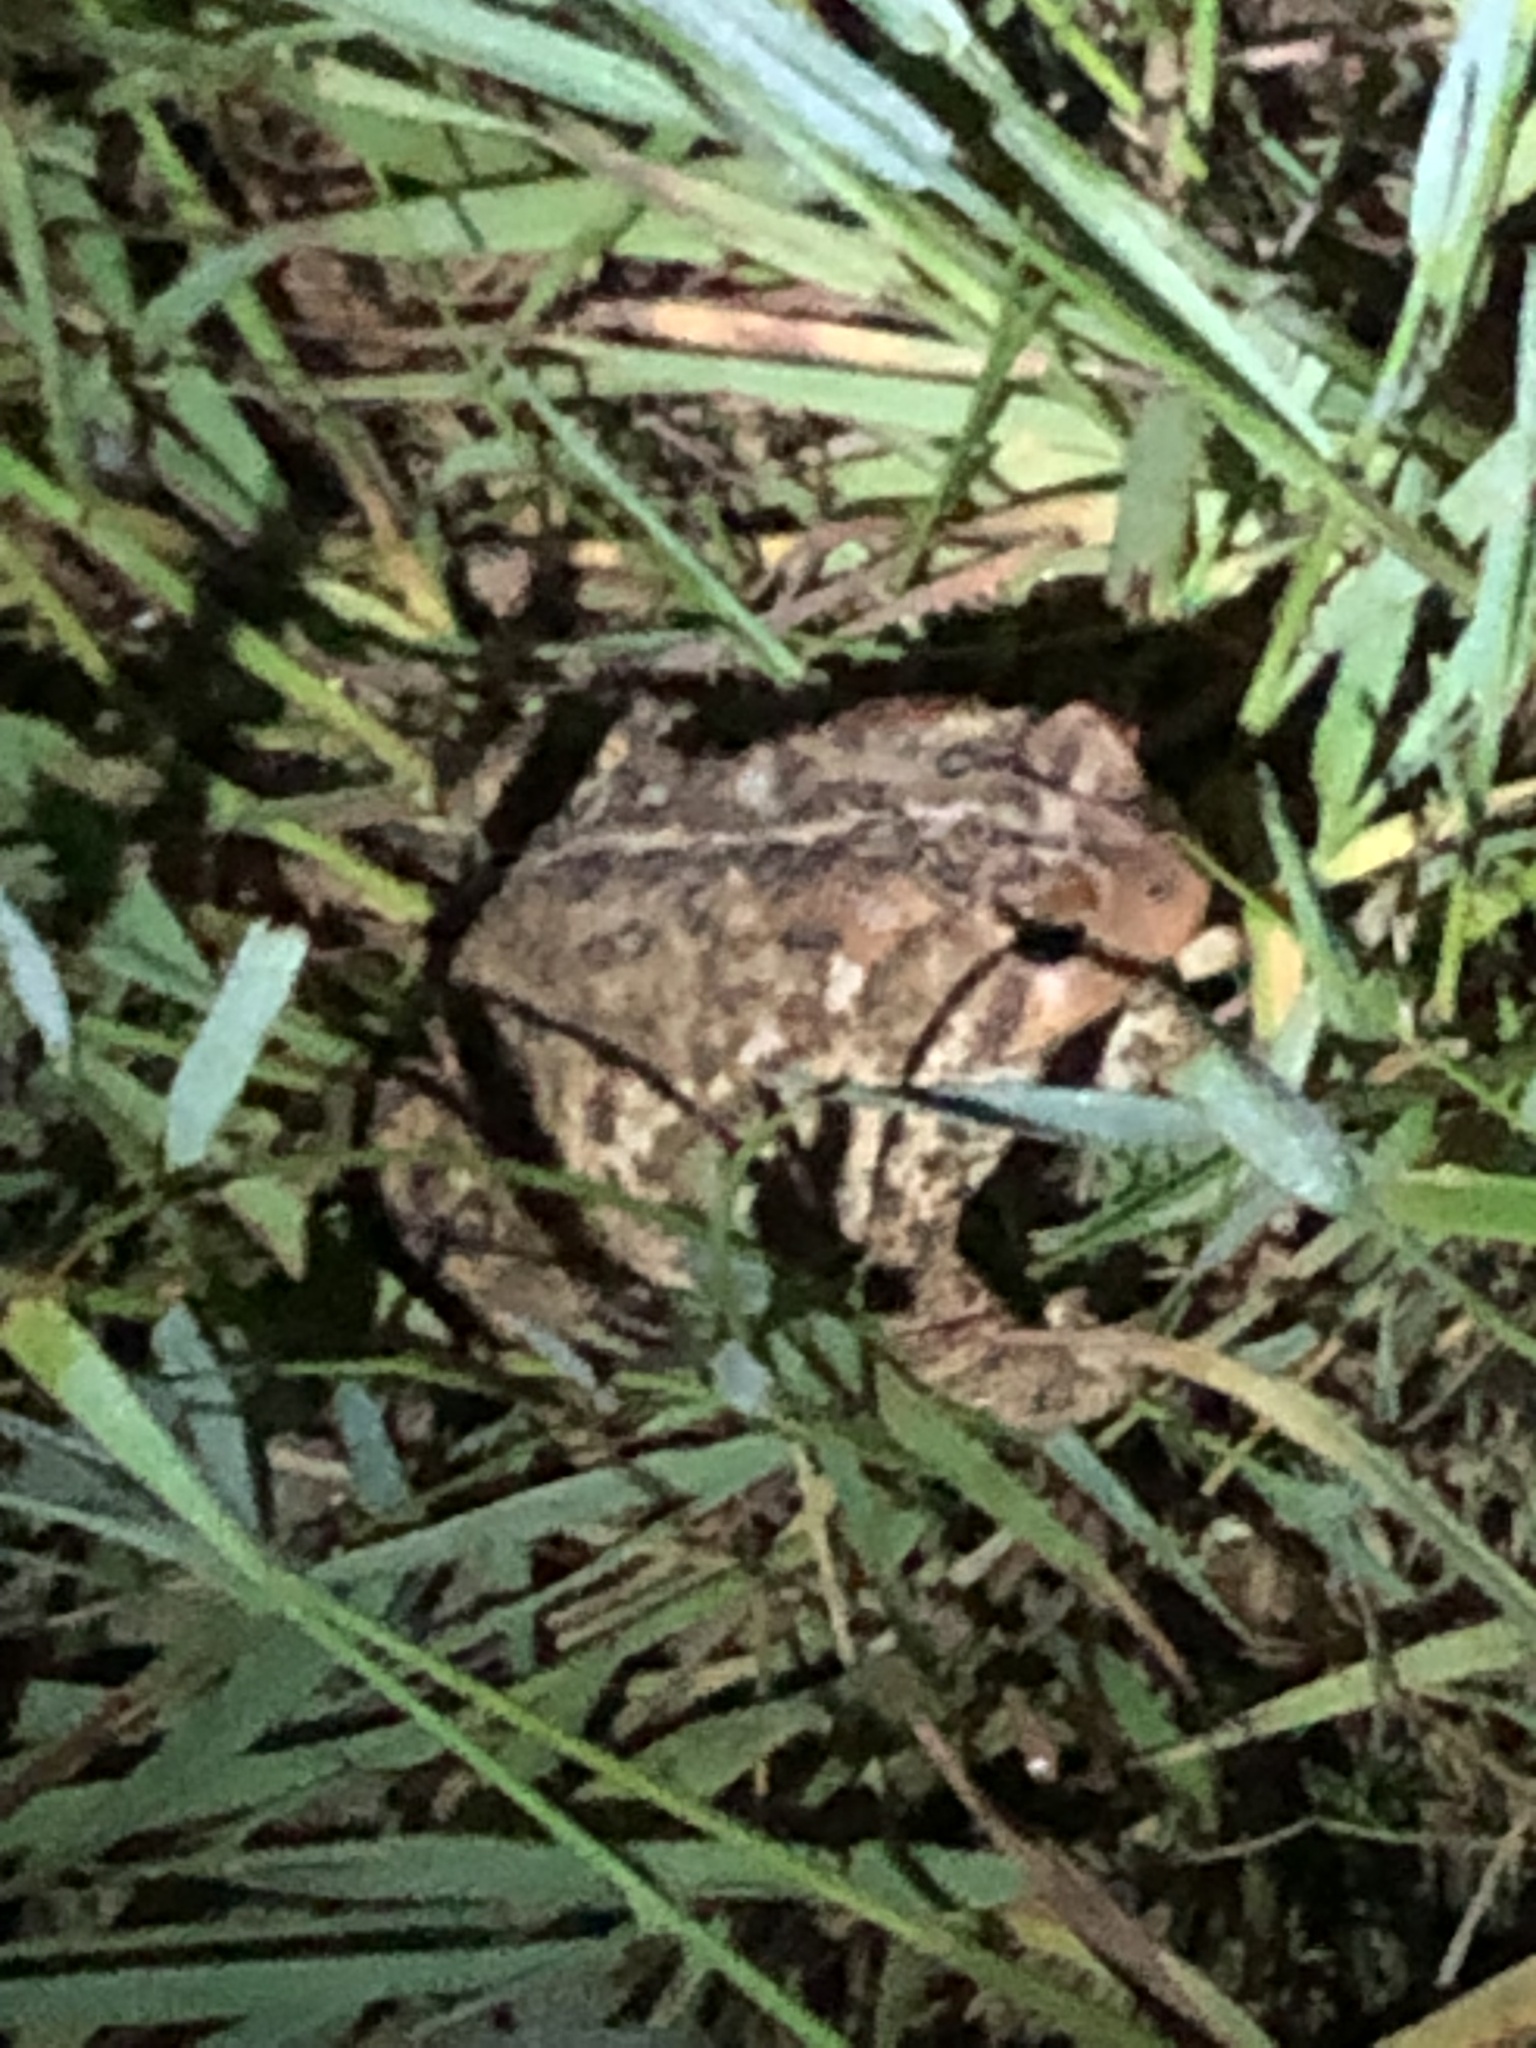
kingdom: Animalia
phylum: Chordata
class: Amphibia
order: Anura
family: Bufonidae
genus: Anaxyrus
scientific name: Anaxyrus americanus
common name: American toad
